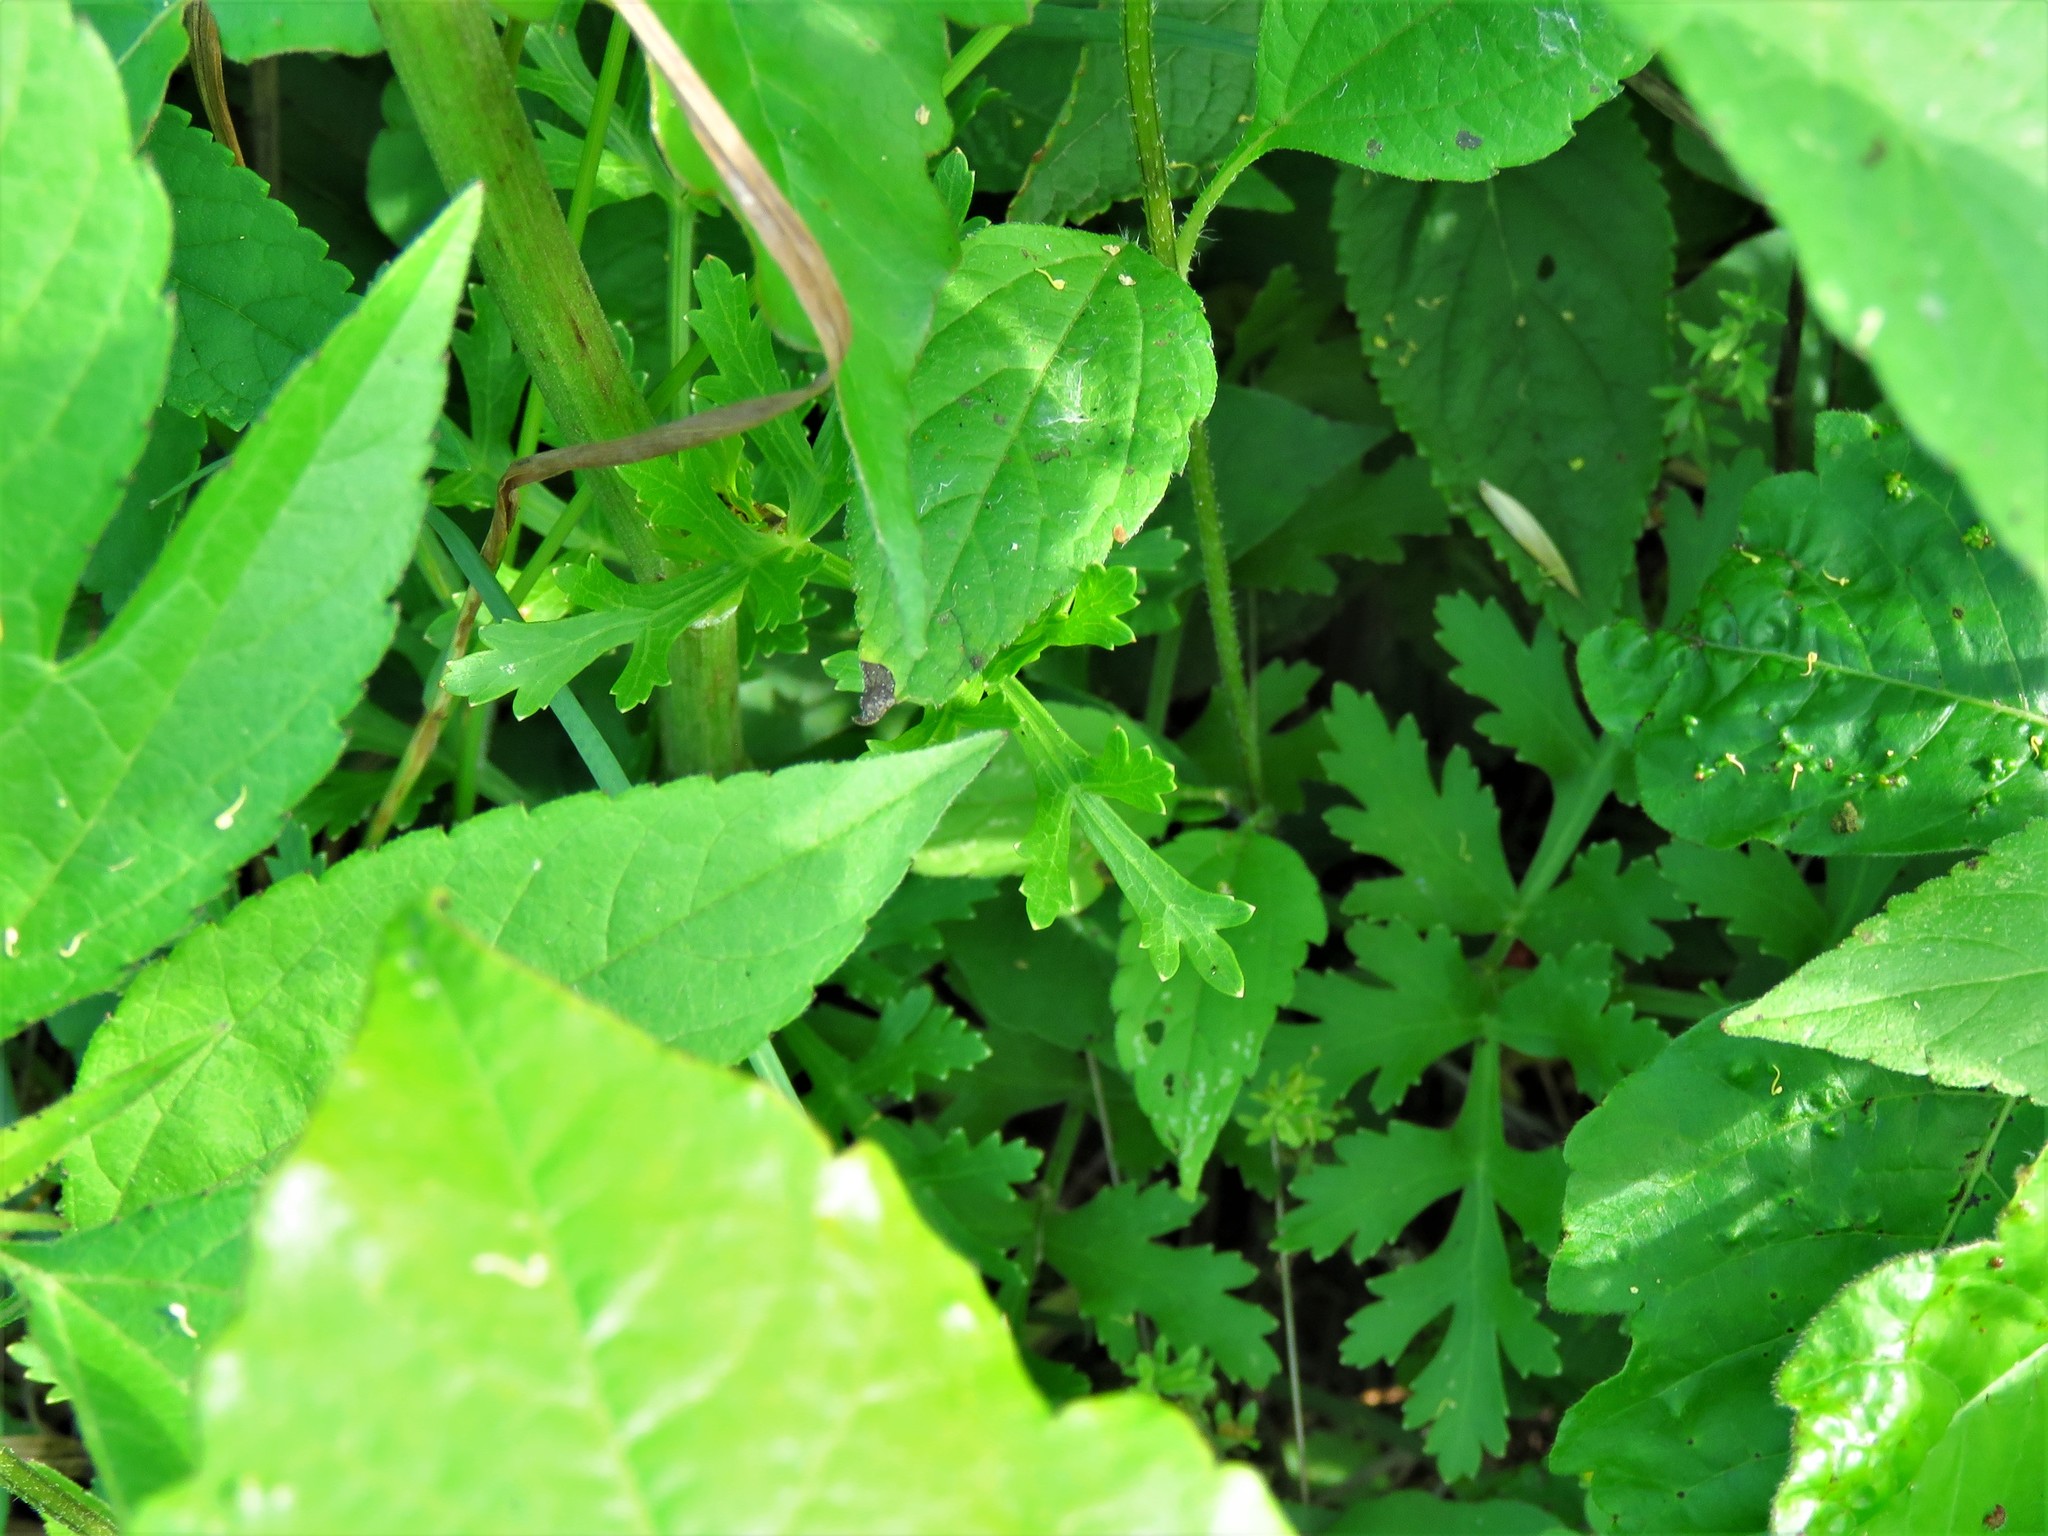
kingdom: Plantae
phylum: Tracheophyta
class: Magnoliopsida
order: Apiales
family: Apiaceae
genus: Polytaenia
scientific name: Polytaenia texana
